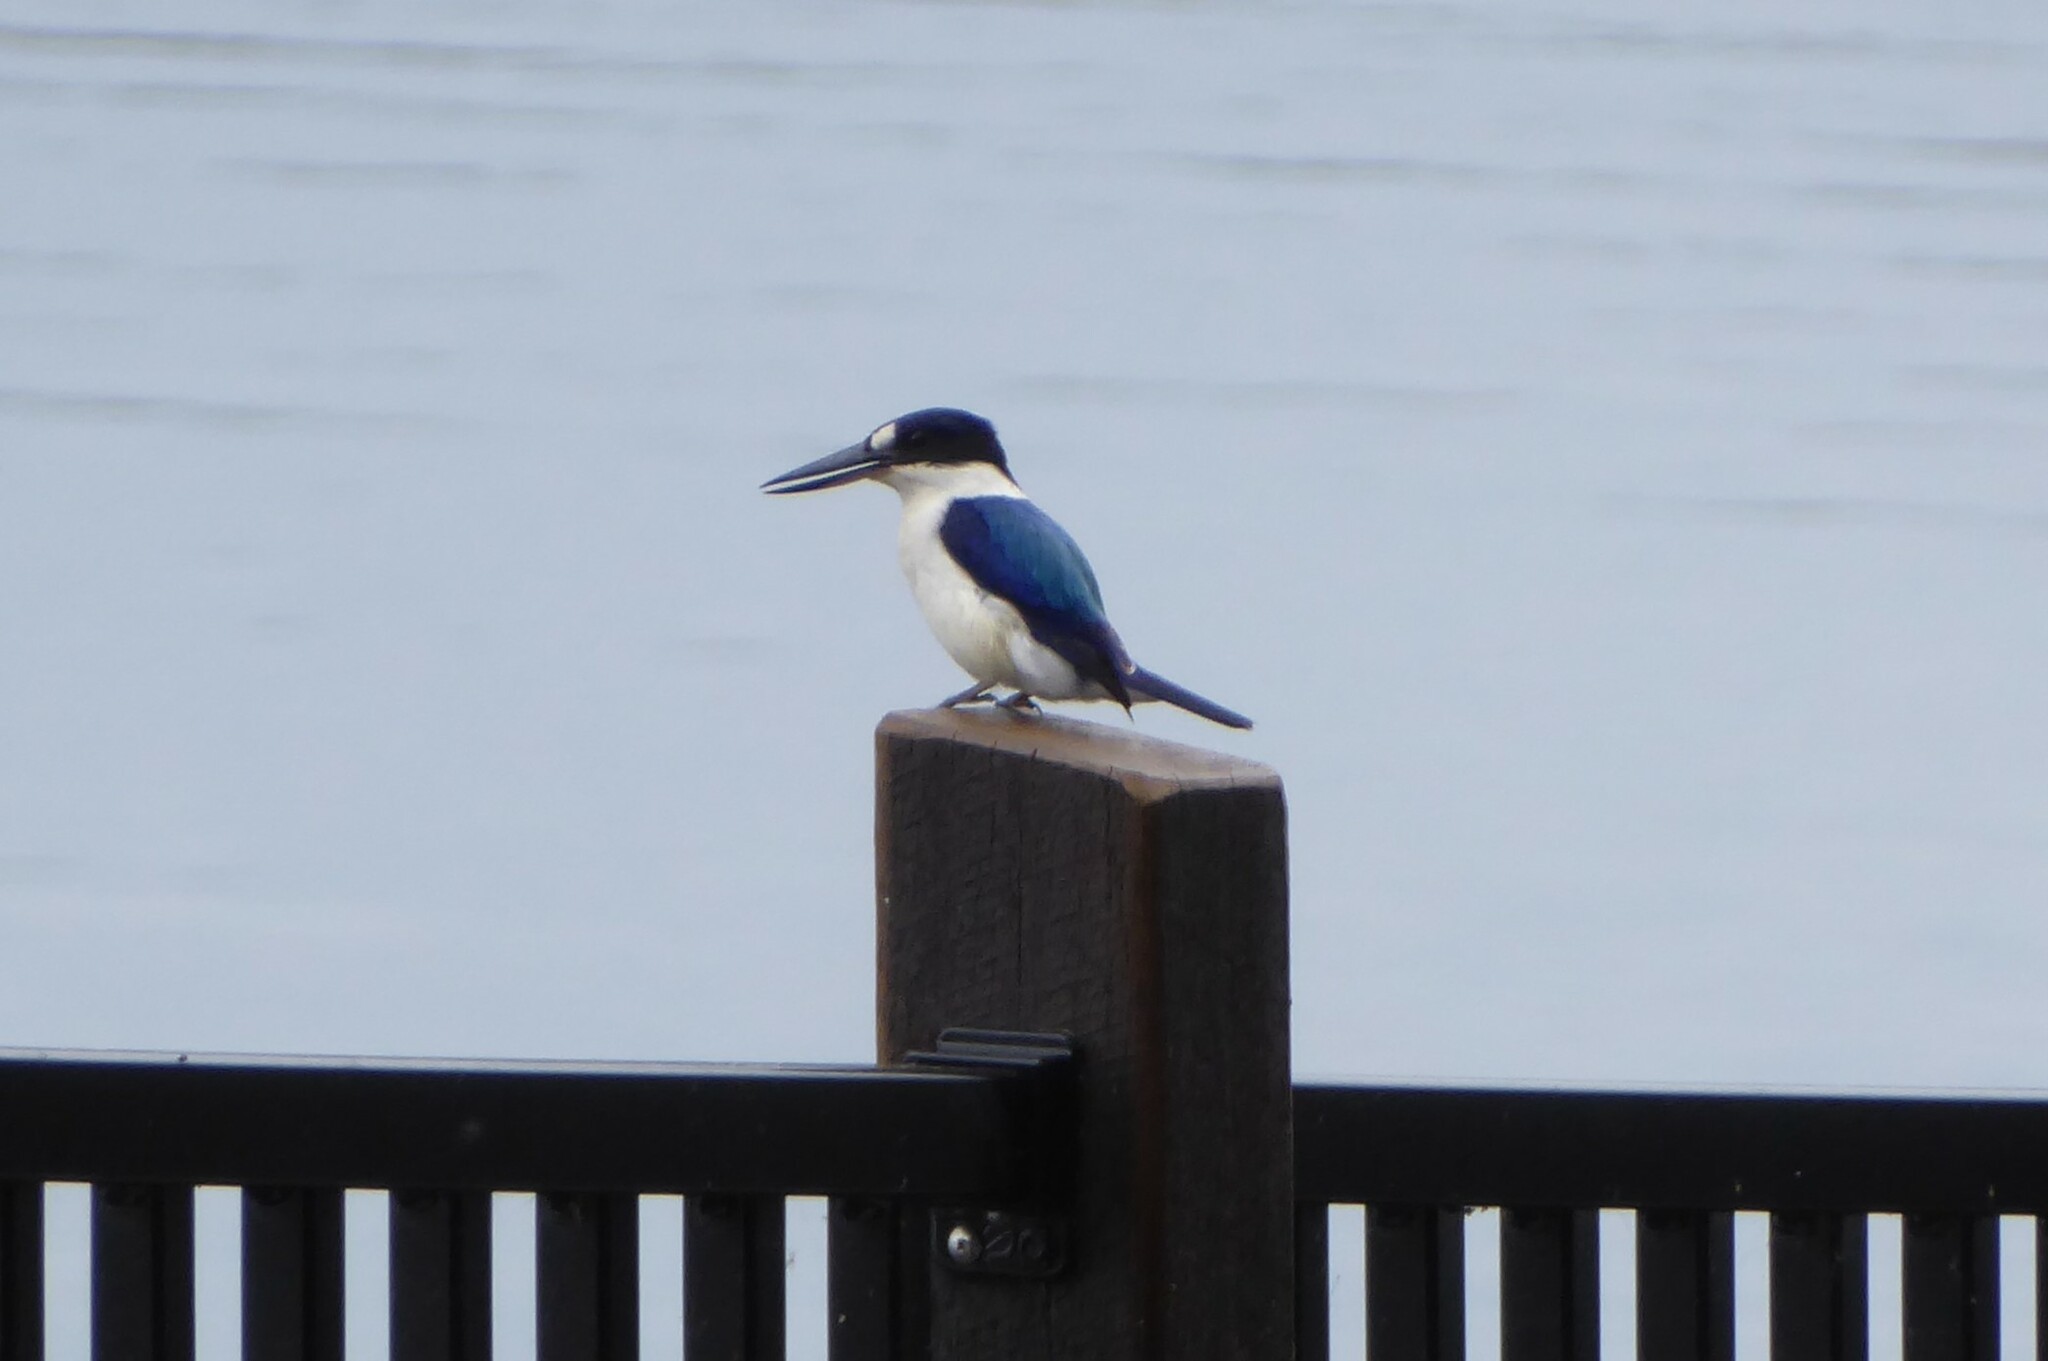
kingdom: Animalia
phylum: Chordata
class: Aves
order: Coraciiformes
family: Alcedinidae
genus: Todiramphus
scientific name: Todiramphus macleayii
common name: Forest kingfisher
